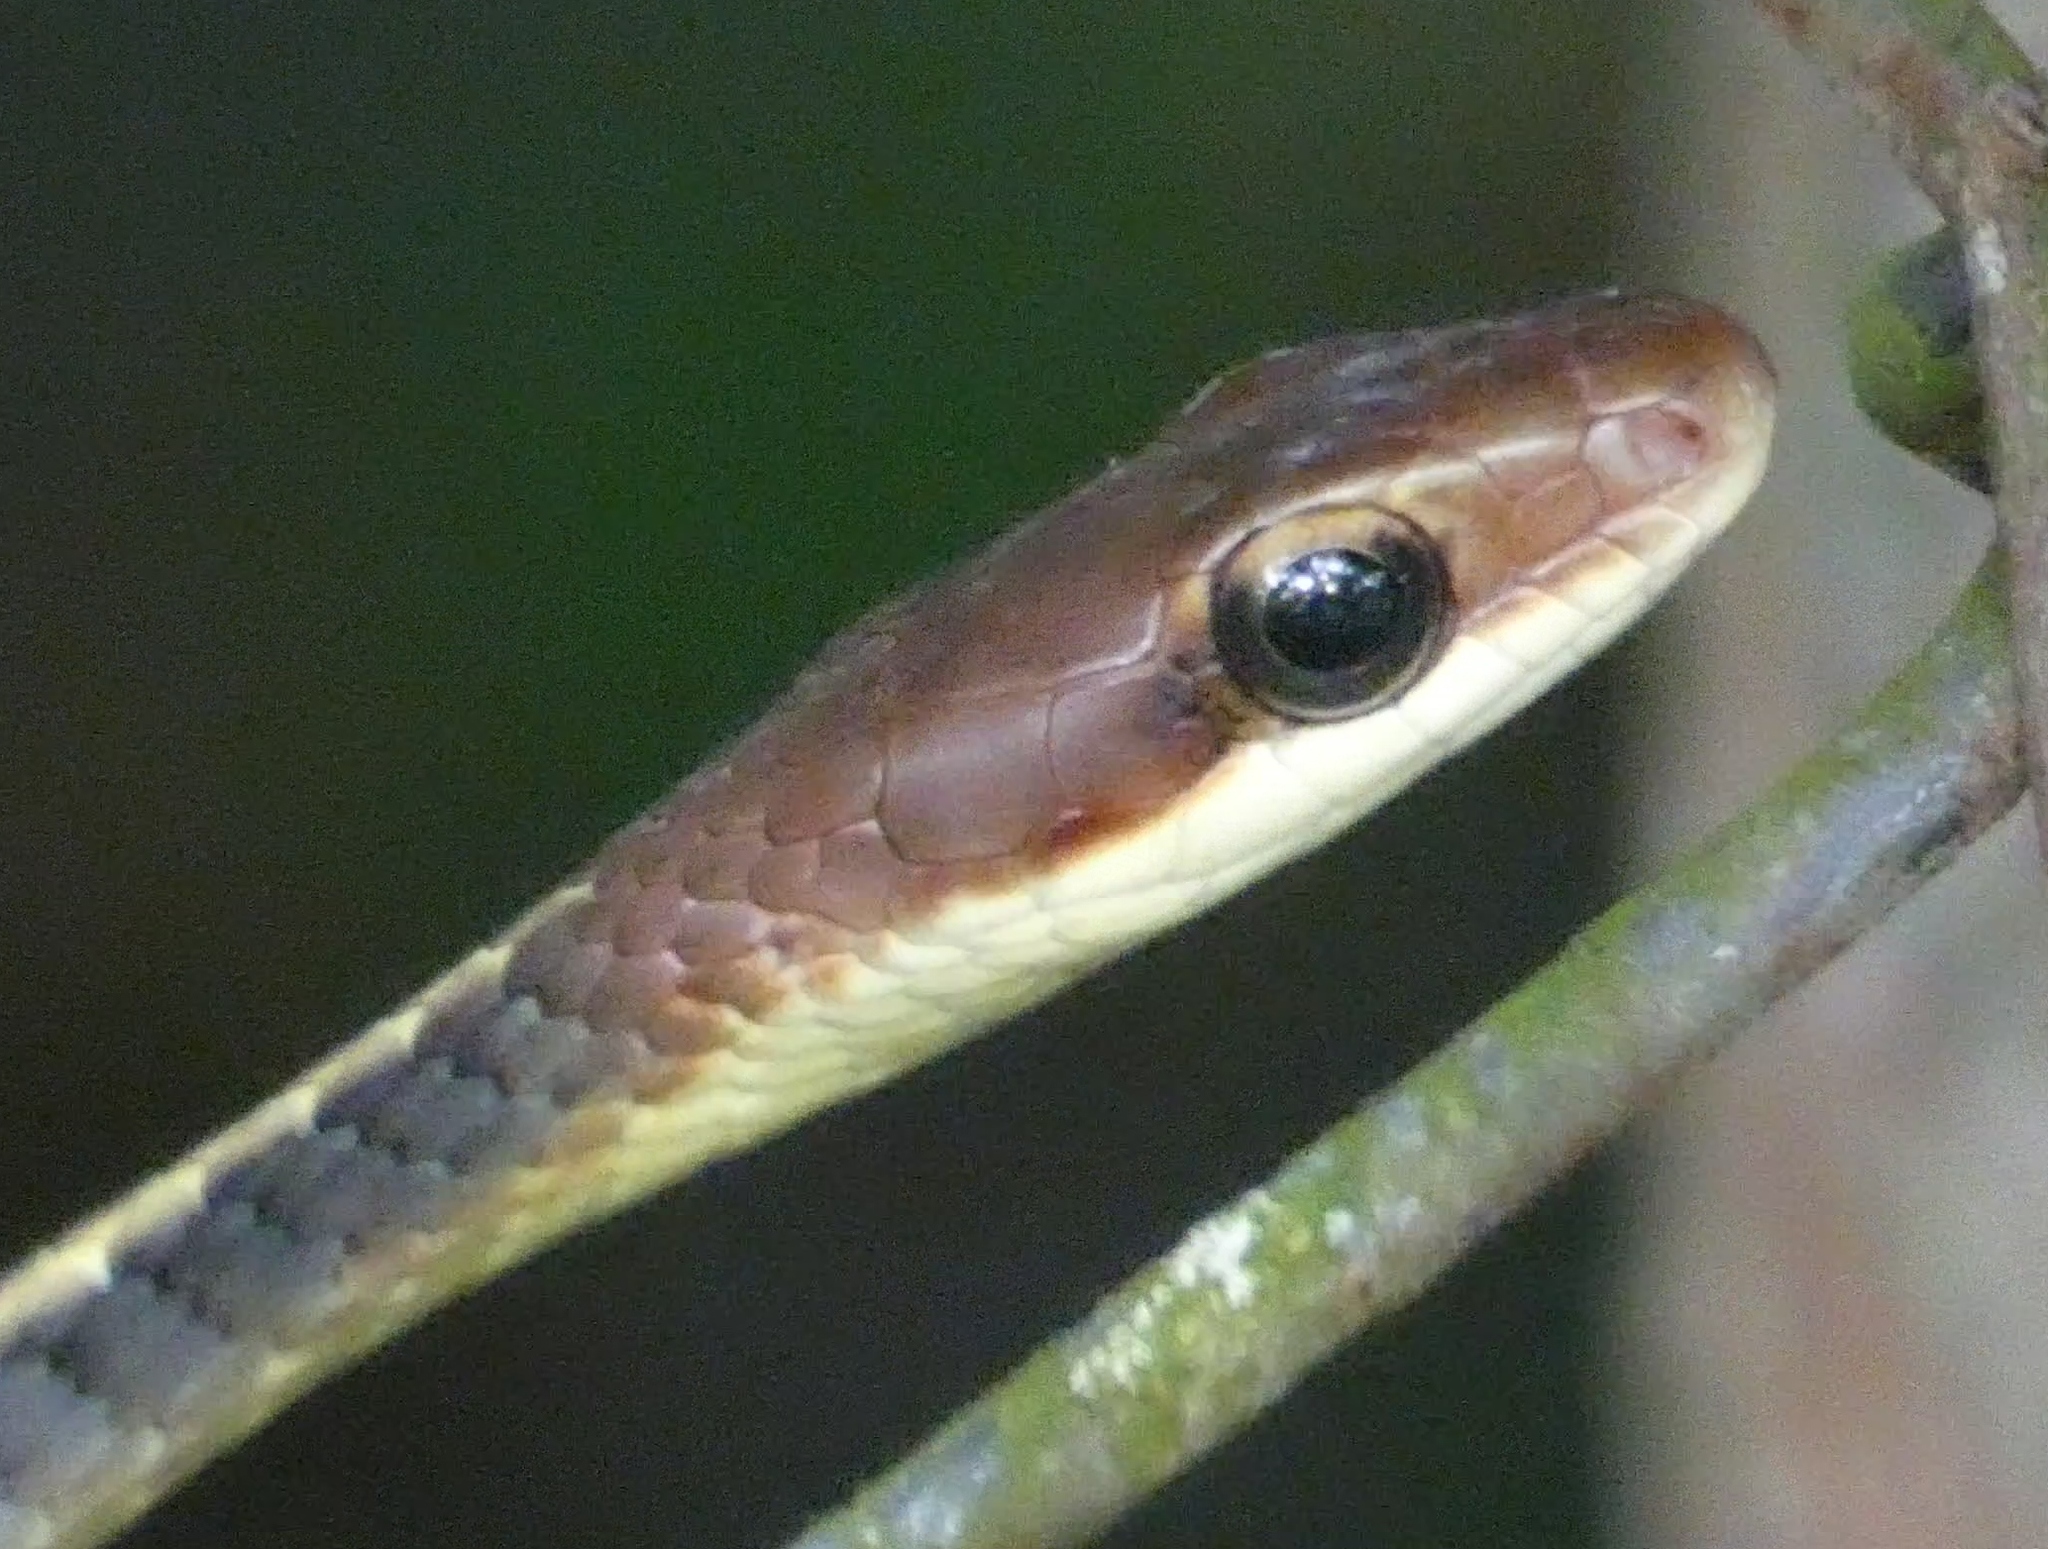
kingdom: Animalia
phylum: Chordata
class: Squamata
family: Colubridae
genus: Chironius
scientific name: Chironius flavolineatus
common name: Boettger's sipo
